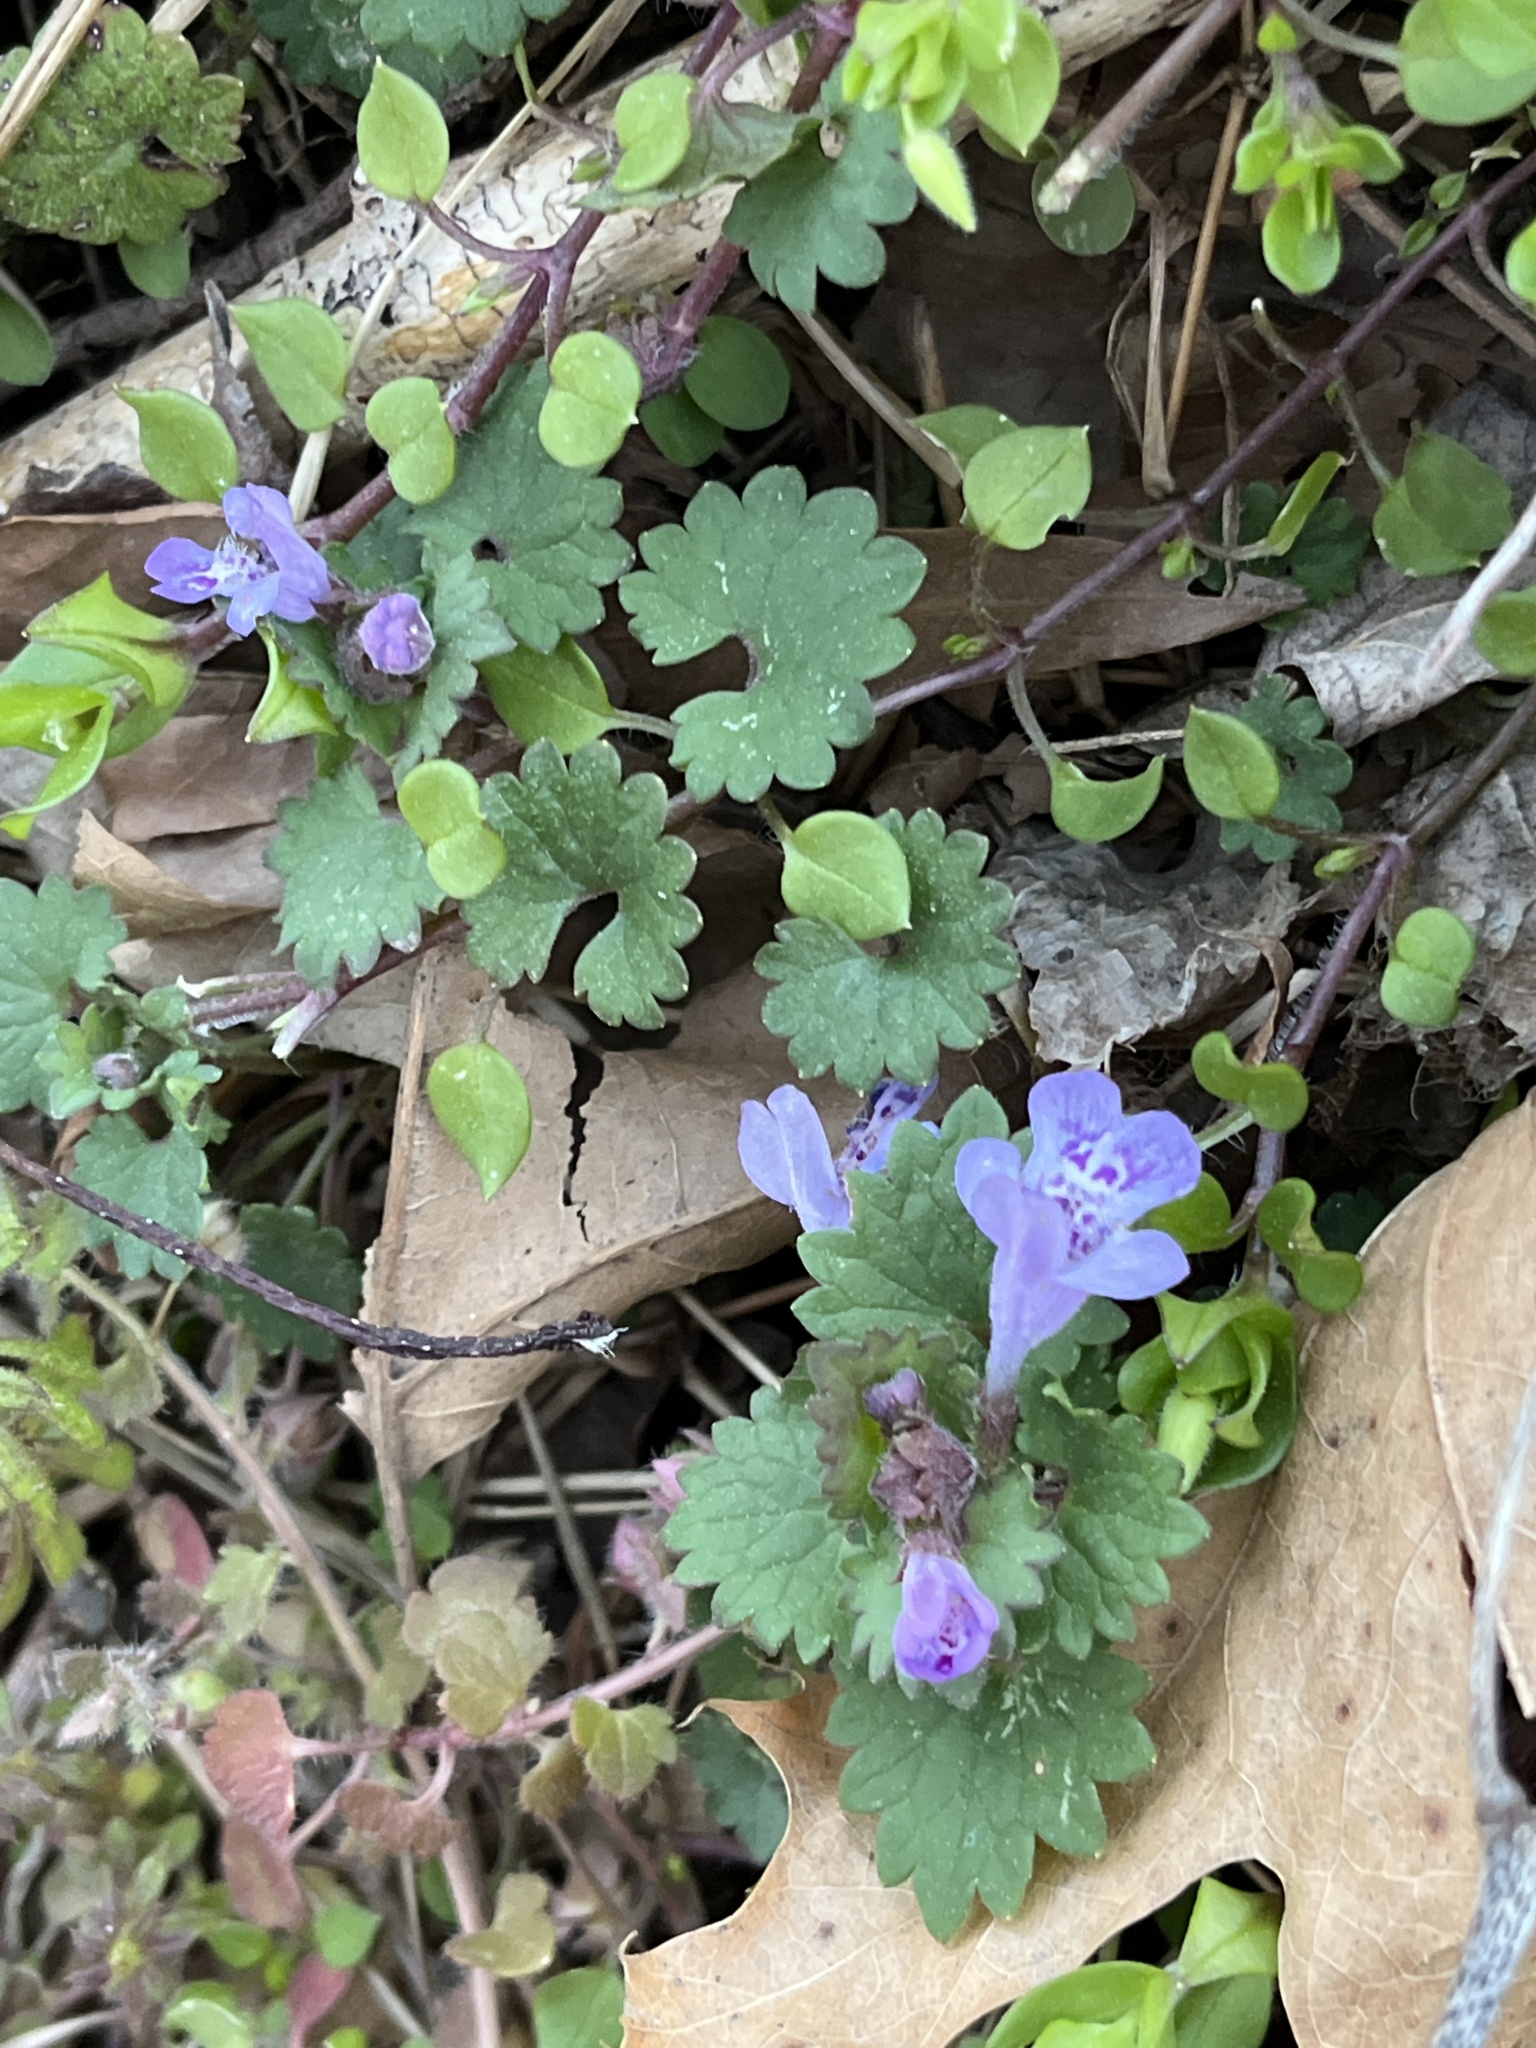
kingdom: Plantae
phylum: Tracheophyta
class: Magnoliopsida
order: Lamiales
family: Lamiaceae
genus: Glechoma
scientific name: Glechoma hederacea
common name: Ground ivy
